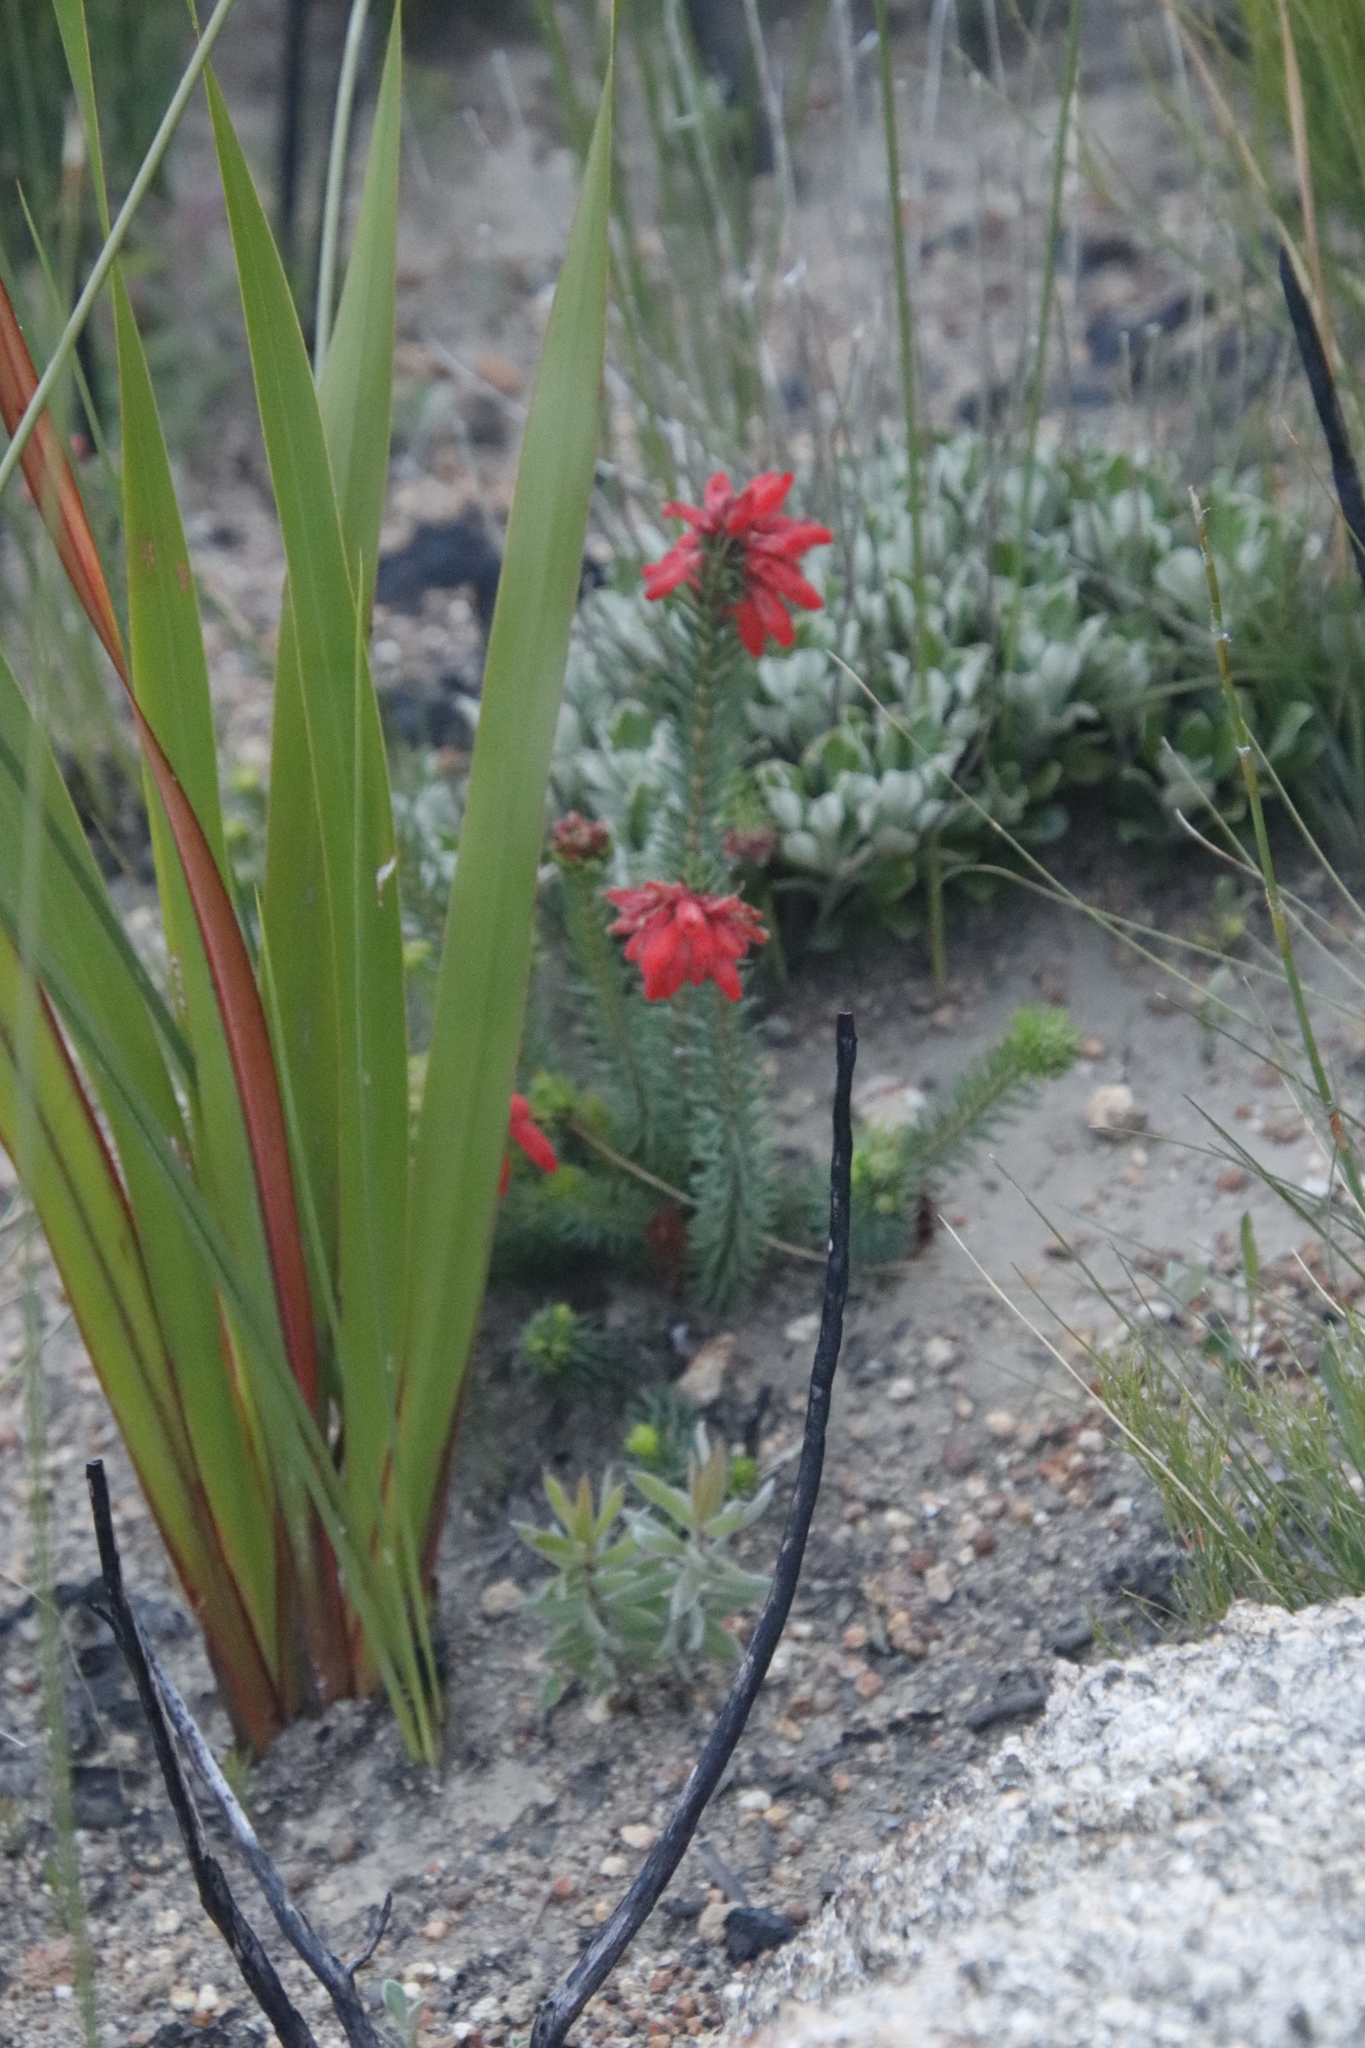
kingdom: Plantae
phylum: Tracheophyta
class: Magnoliopsida
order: Ericales
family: Ericaceae
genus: Erica
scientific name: Erica cerinthoides
